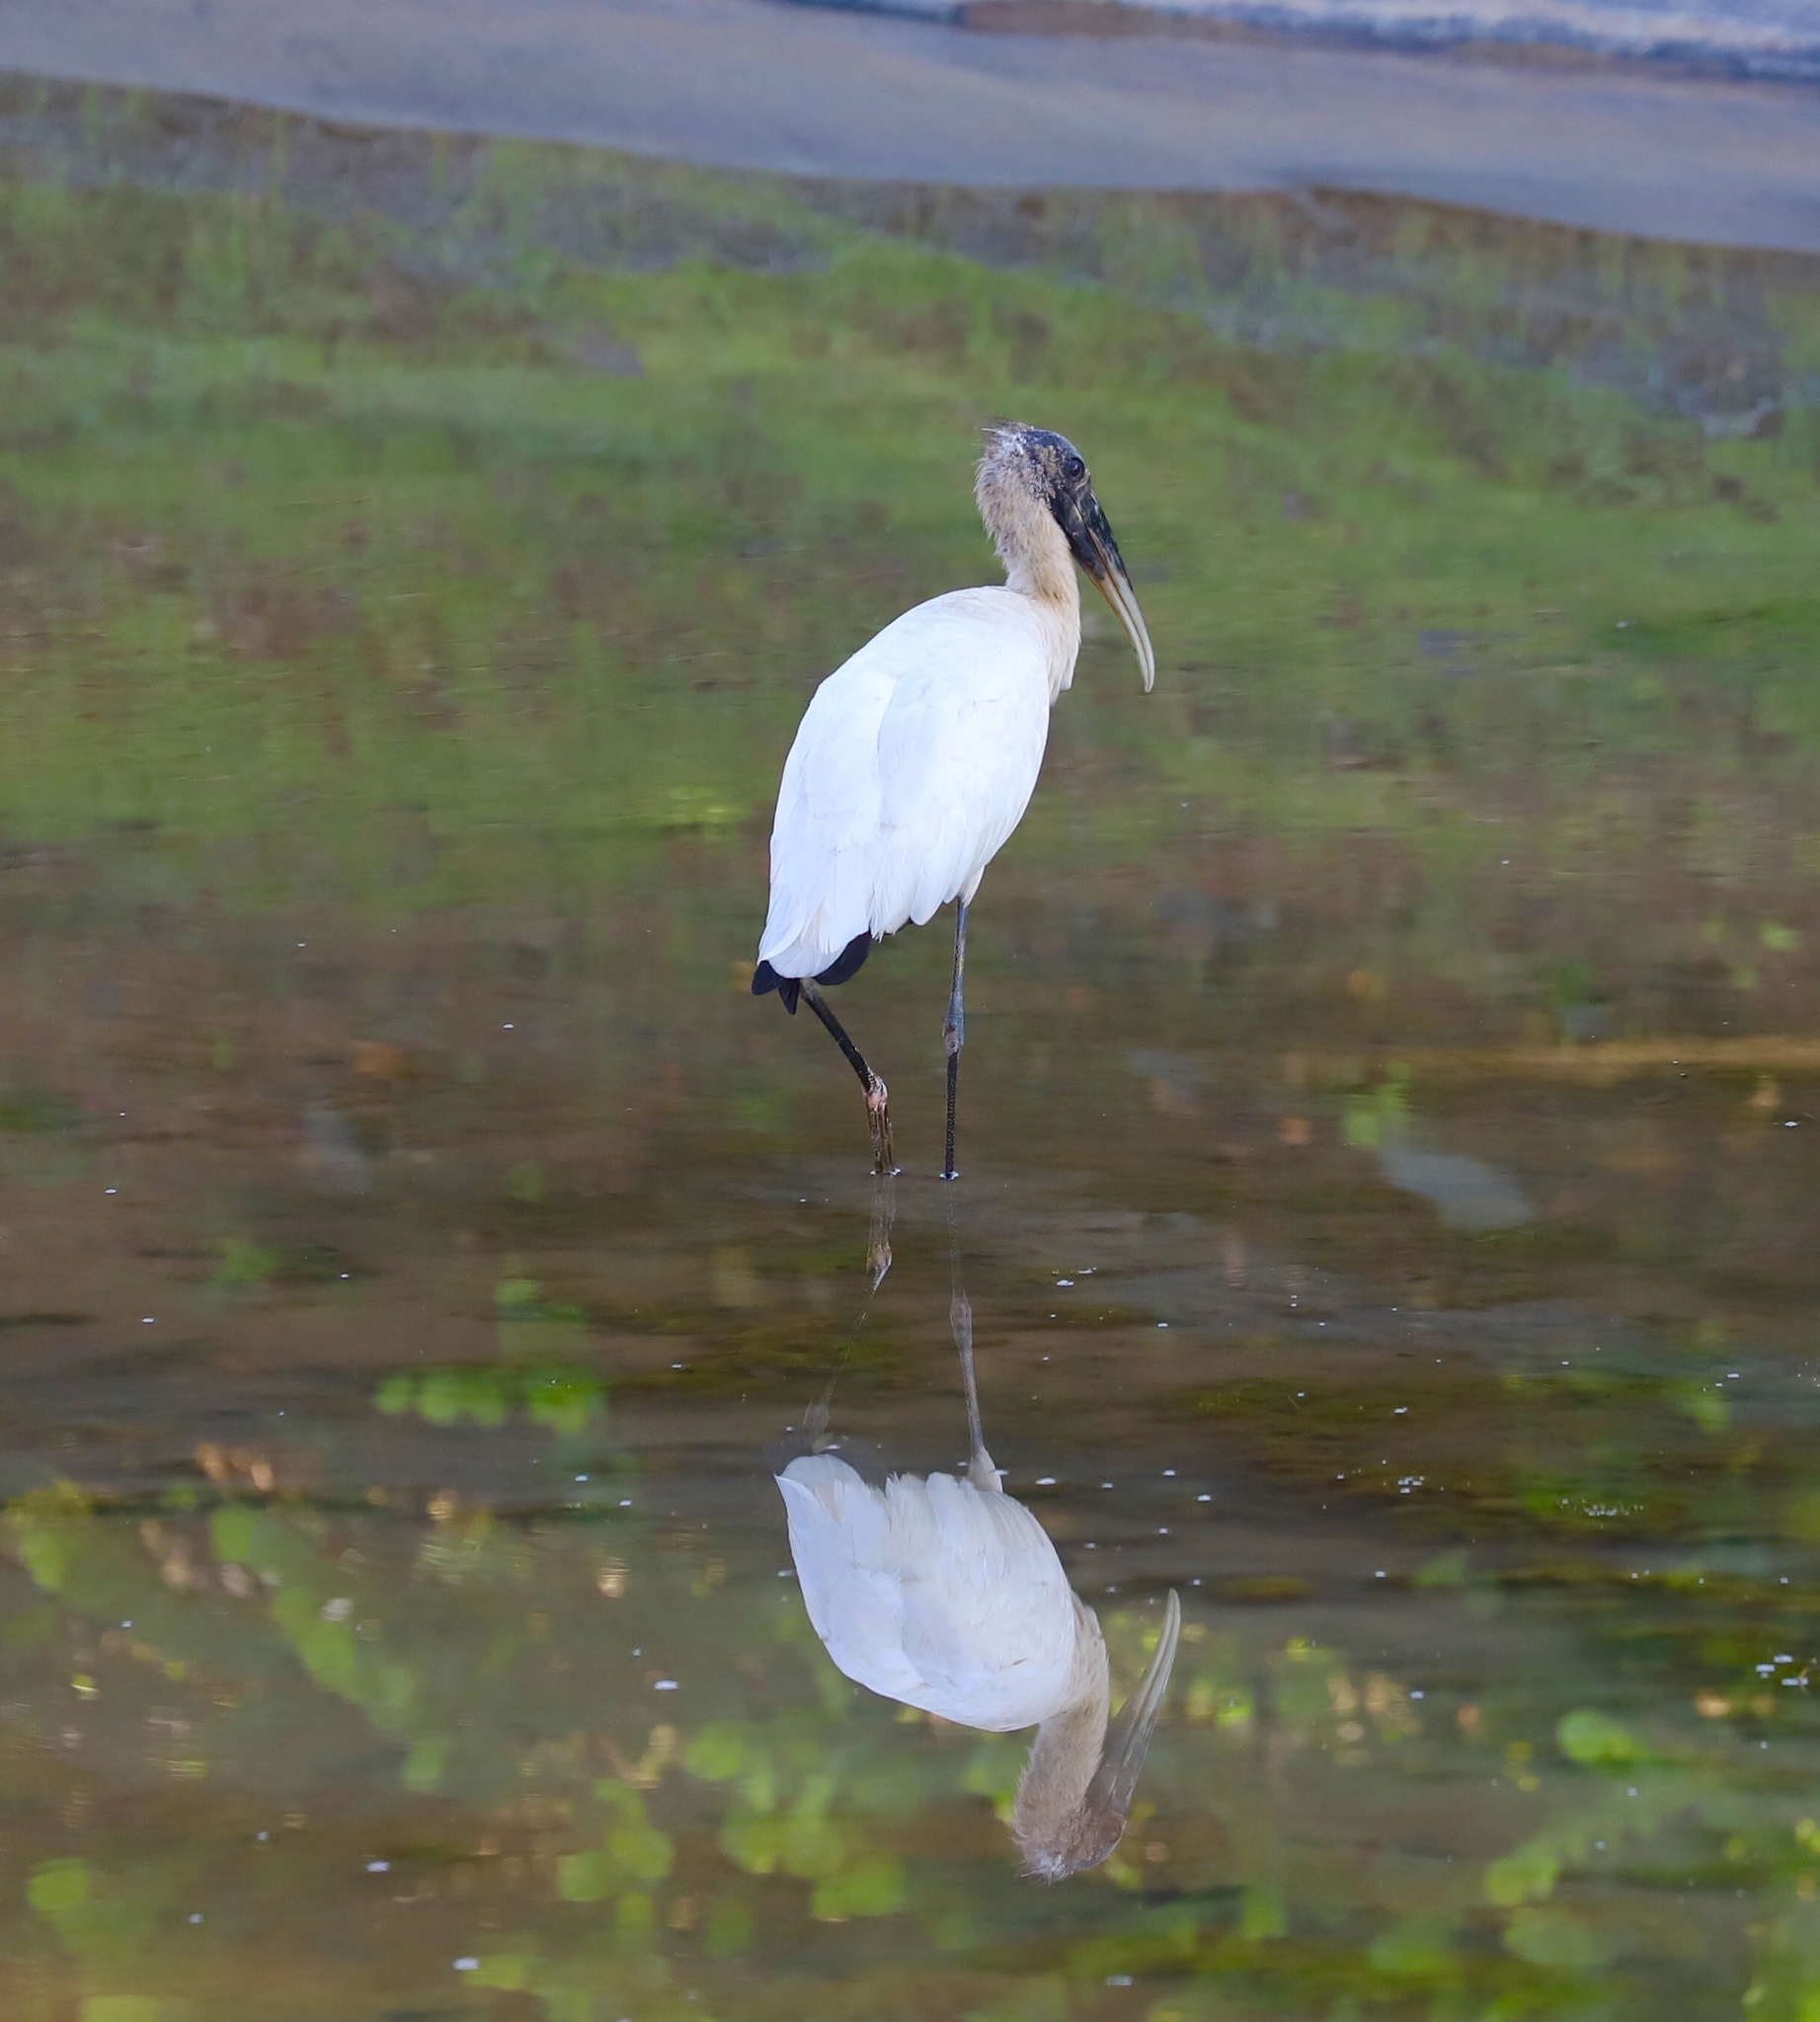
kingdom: Animalia
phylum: Chordata
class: Aves
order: Ciconiiformes
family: Ciconiidae
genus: Mycteria
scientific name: Mycteria americana
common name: Wood stork
